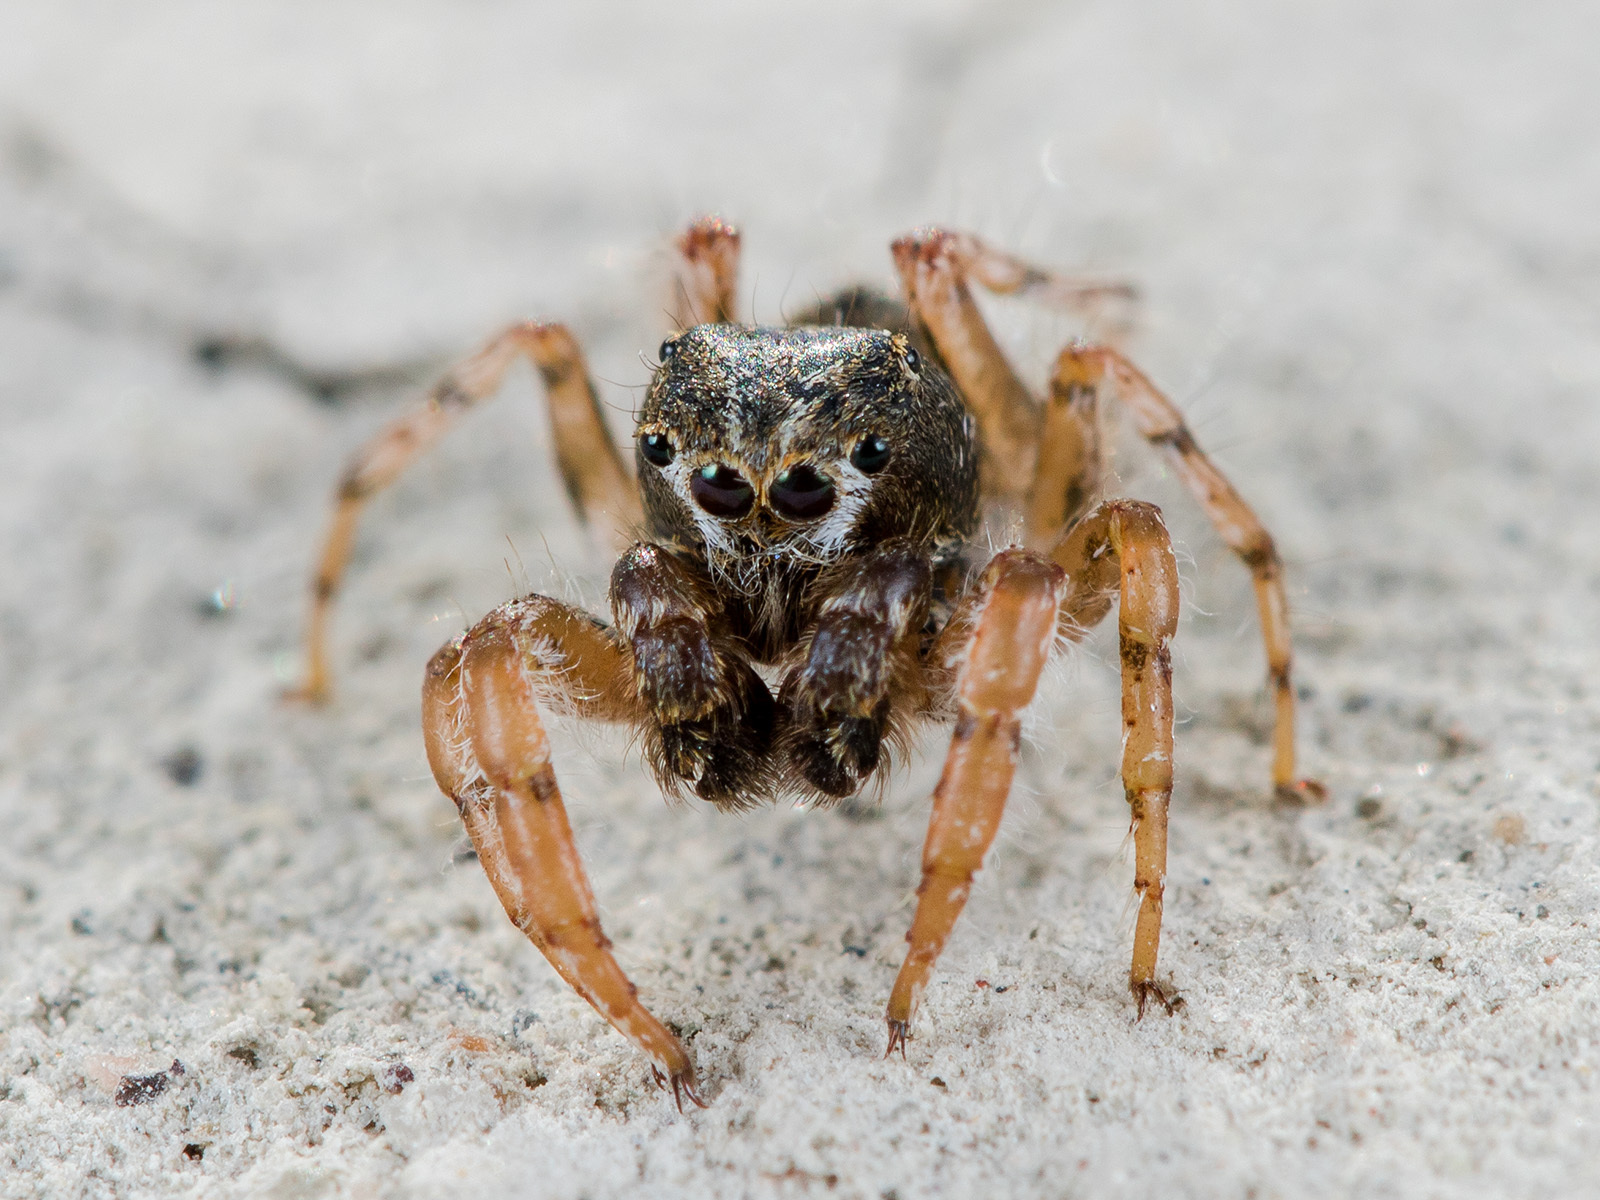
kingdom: Animalia
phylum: Arthropoda
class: Arachnida
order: Araneae
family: Salticidae
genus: Yllenus
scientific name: Yllenus uiguricus
